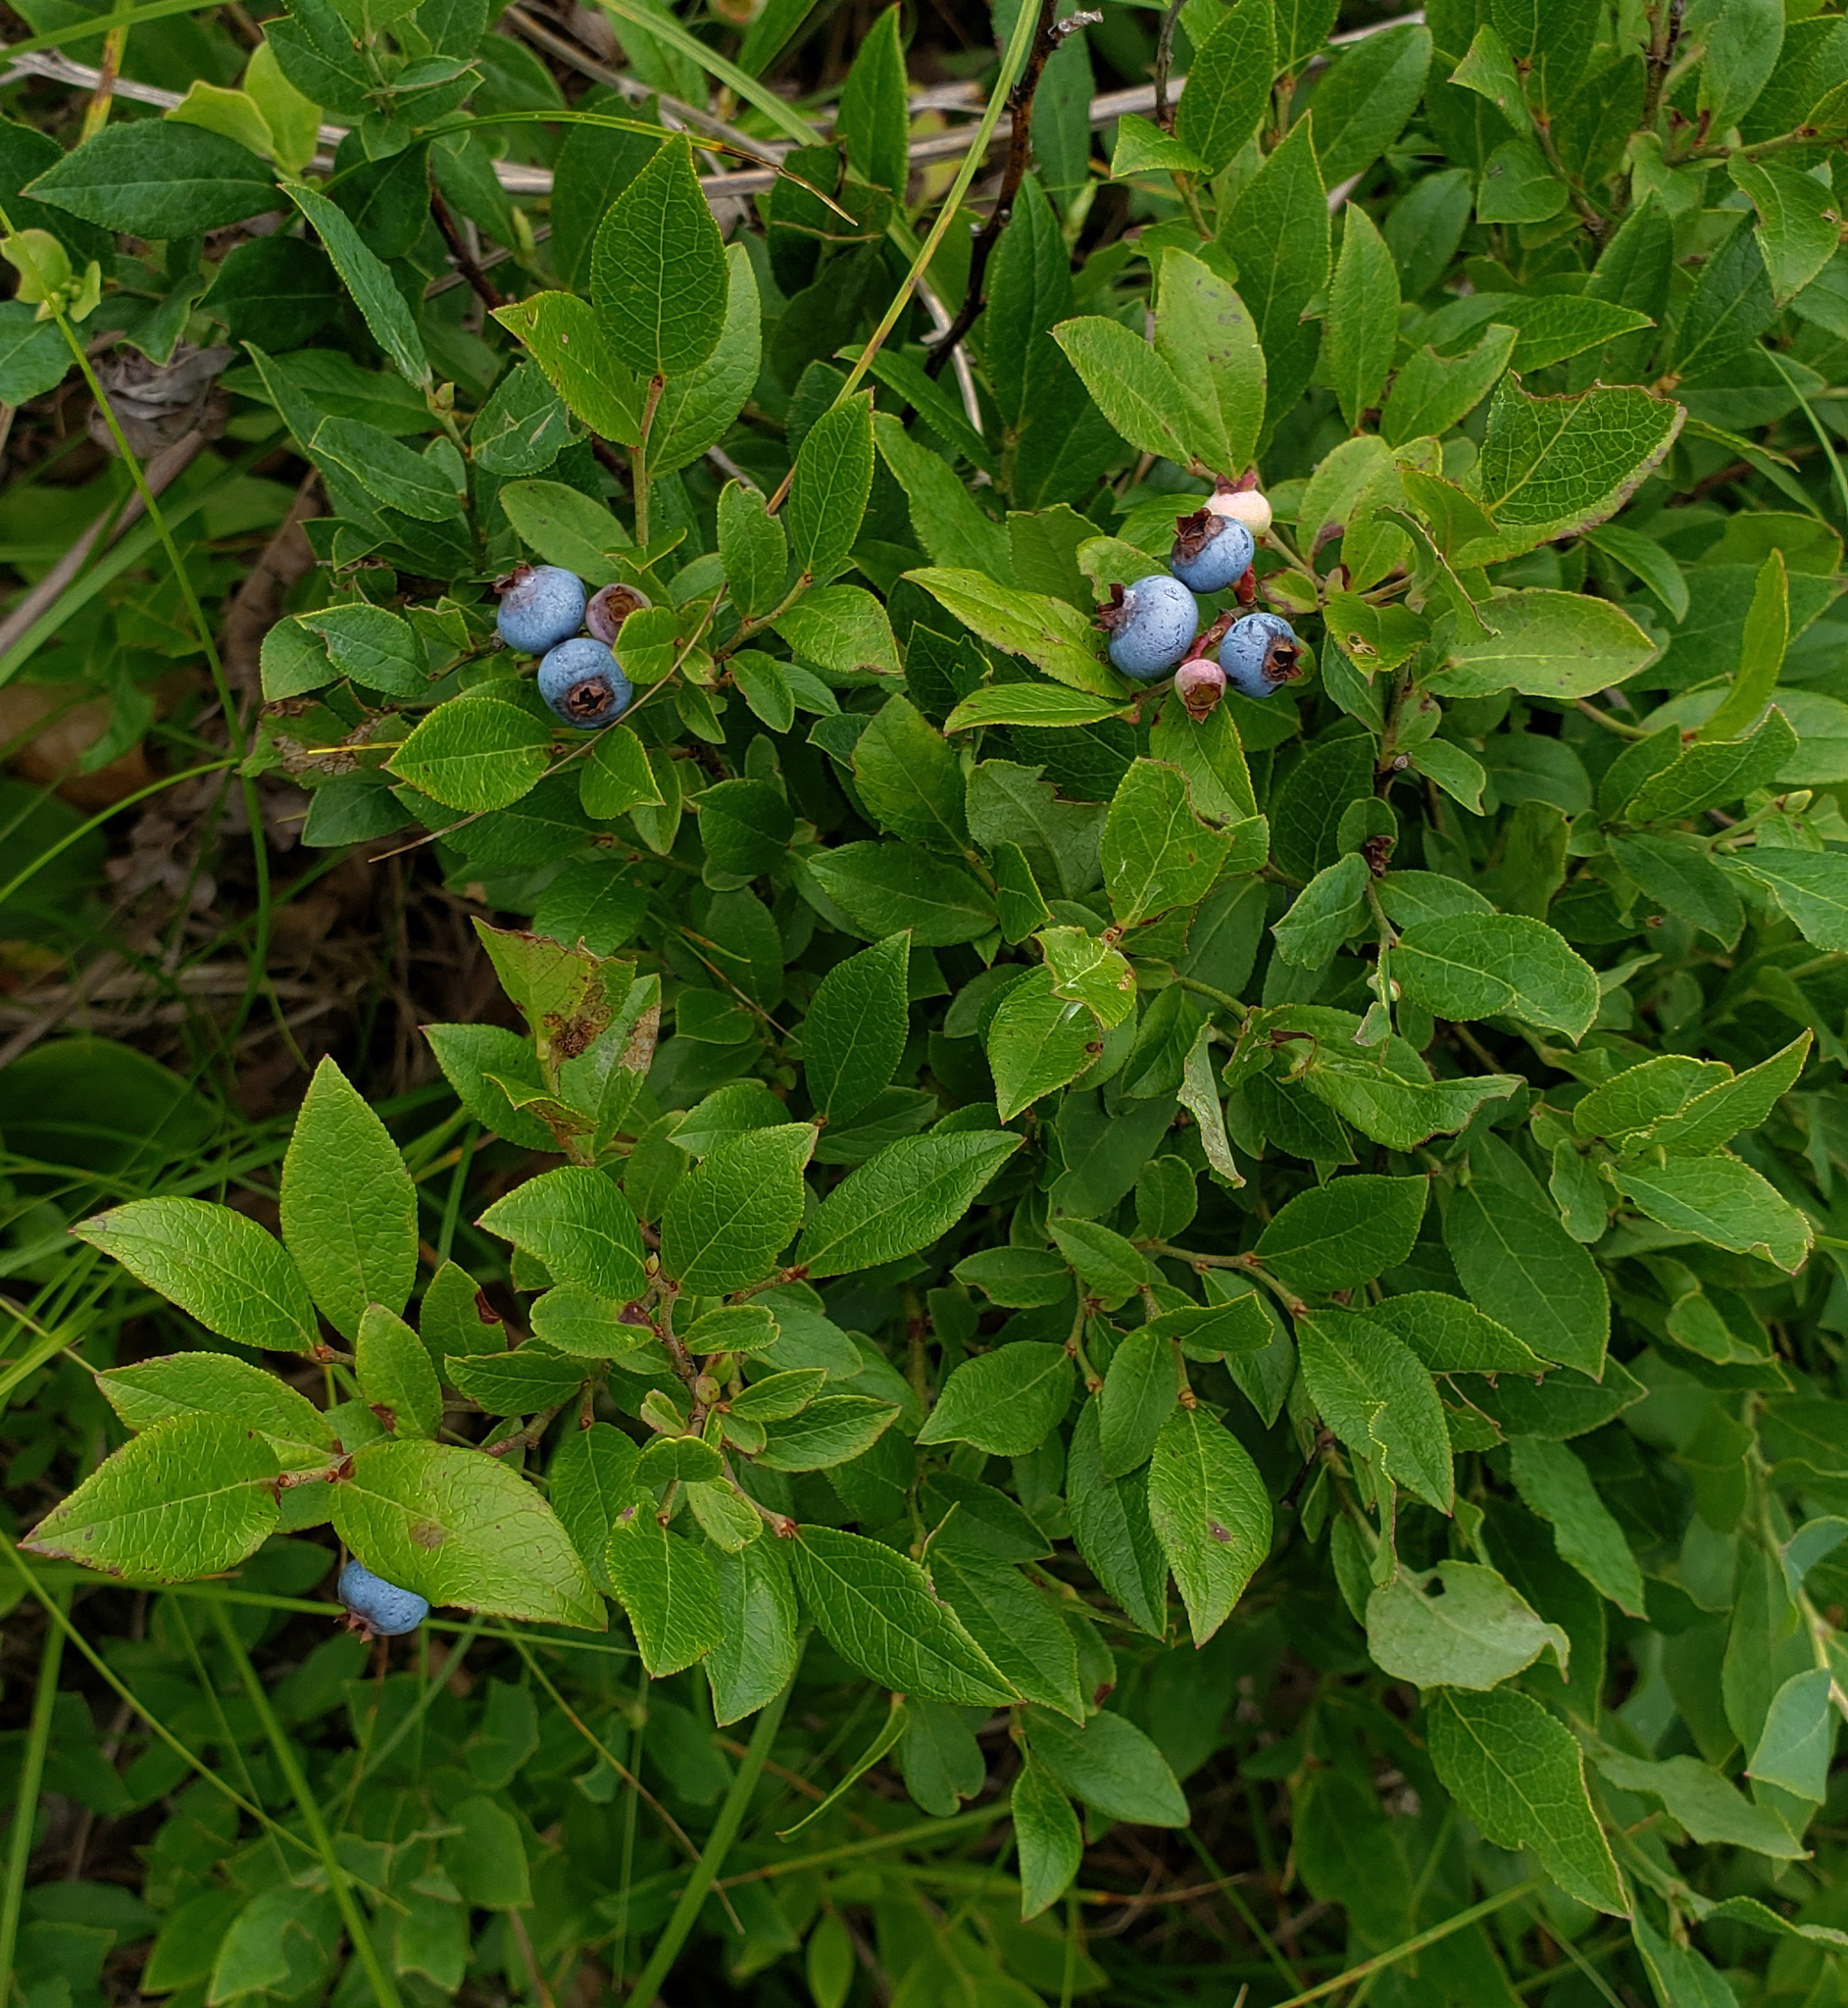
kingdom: Plantae
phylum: Tracheophyta
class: Magnoliopsida
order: Ericales
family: Ericaceae
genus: Vaccinium
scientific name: Vaccinium angustifolium
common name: Early lowbush blueberry
